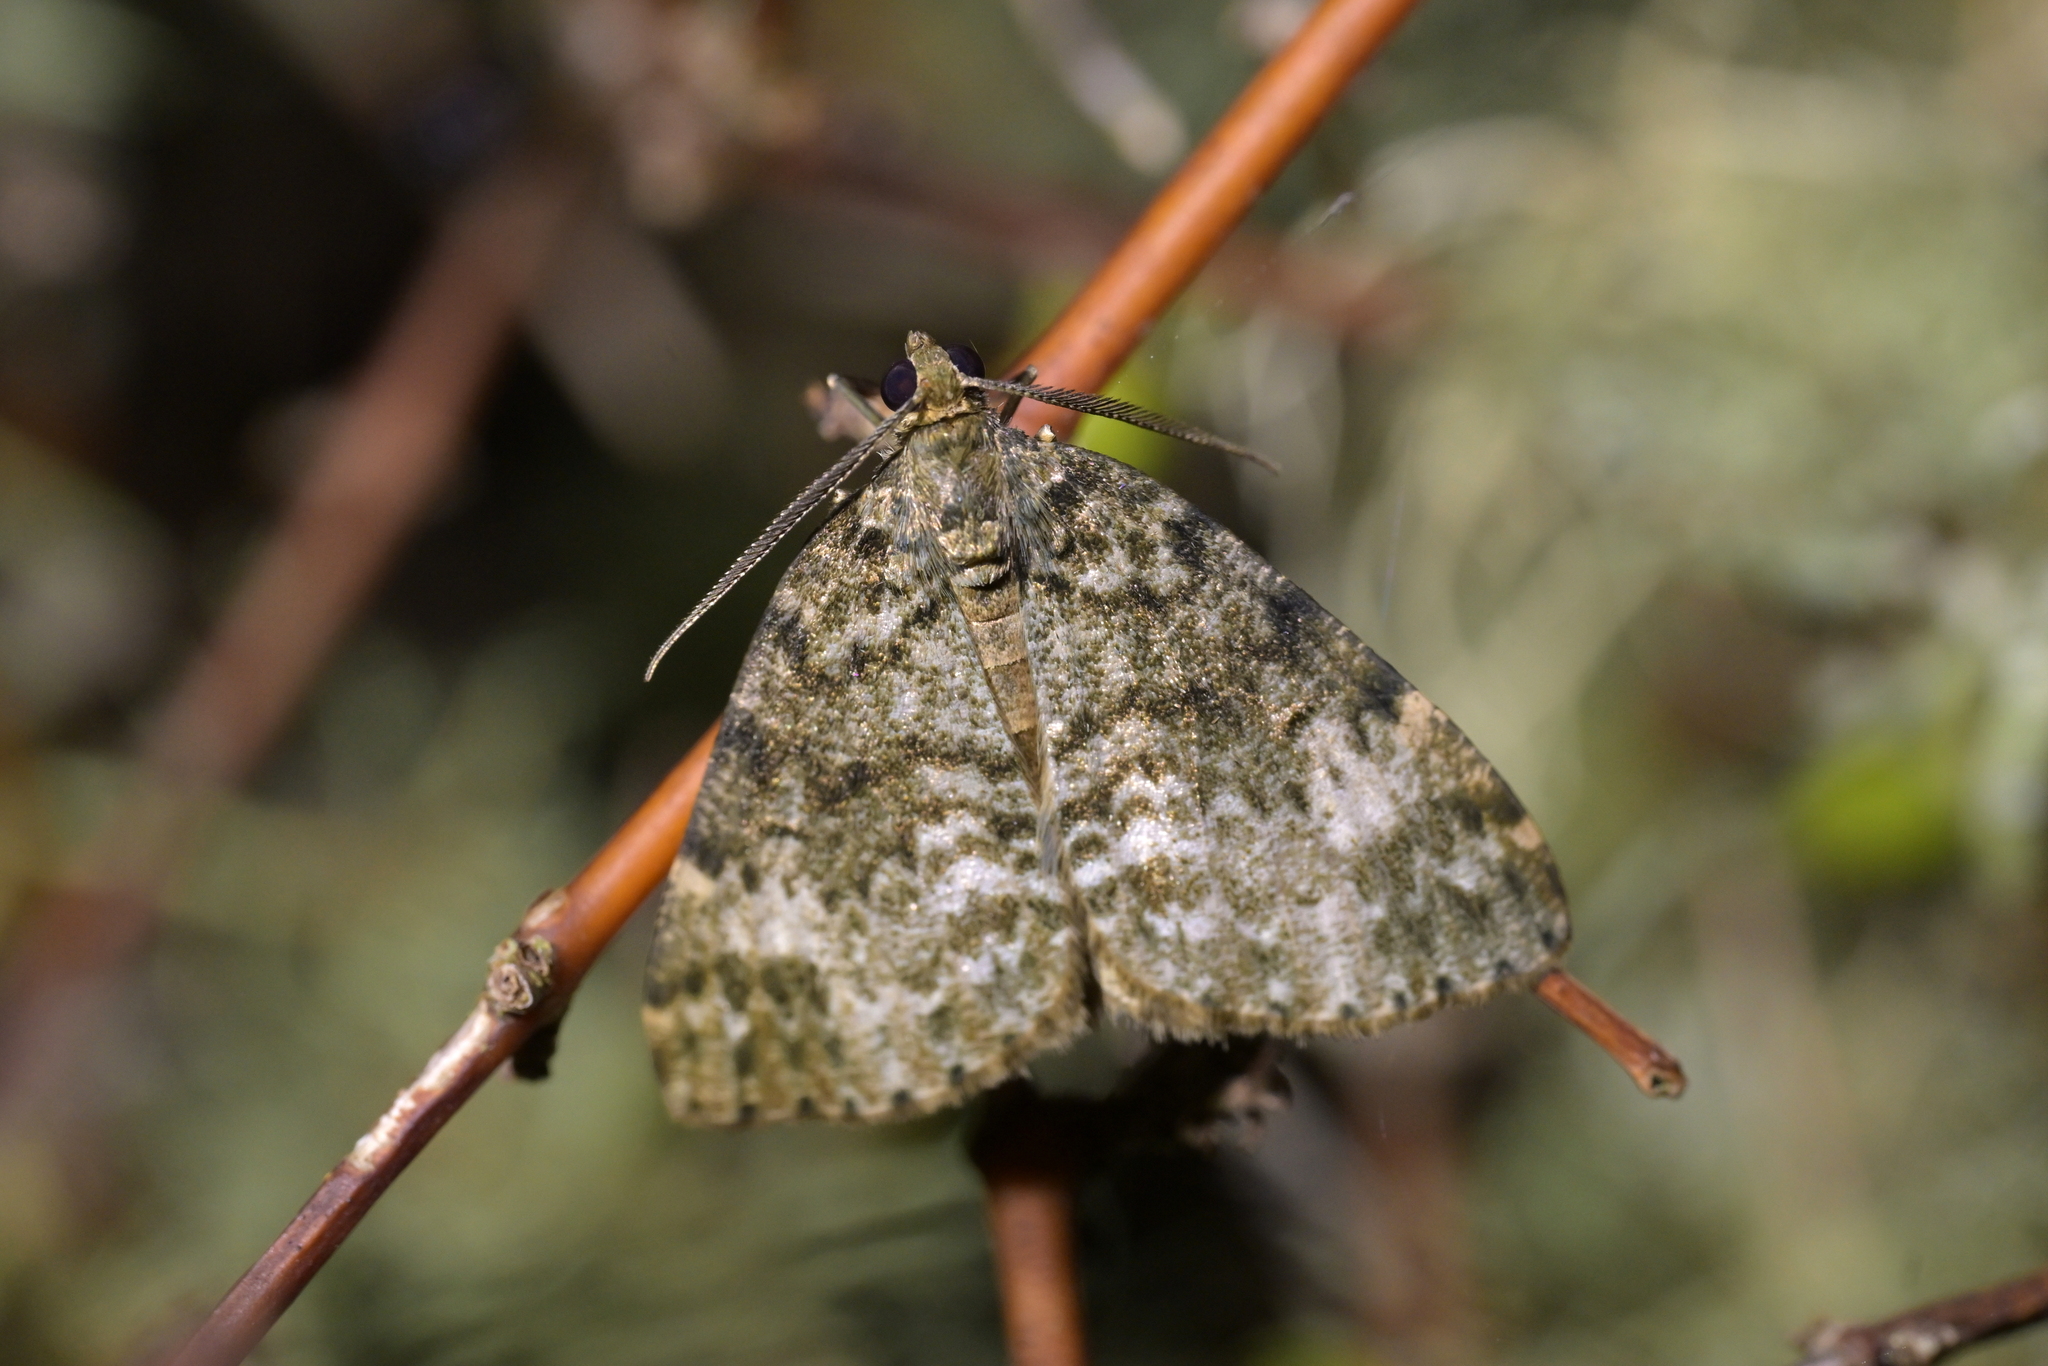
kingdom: Animalia
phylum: Arthropoda
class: Insecta
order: Lepidoptera
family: Geometridae
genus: Pseudocoremia
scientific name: Pseudocoremia indistincta
